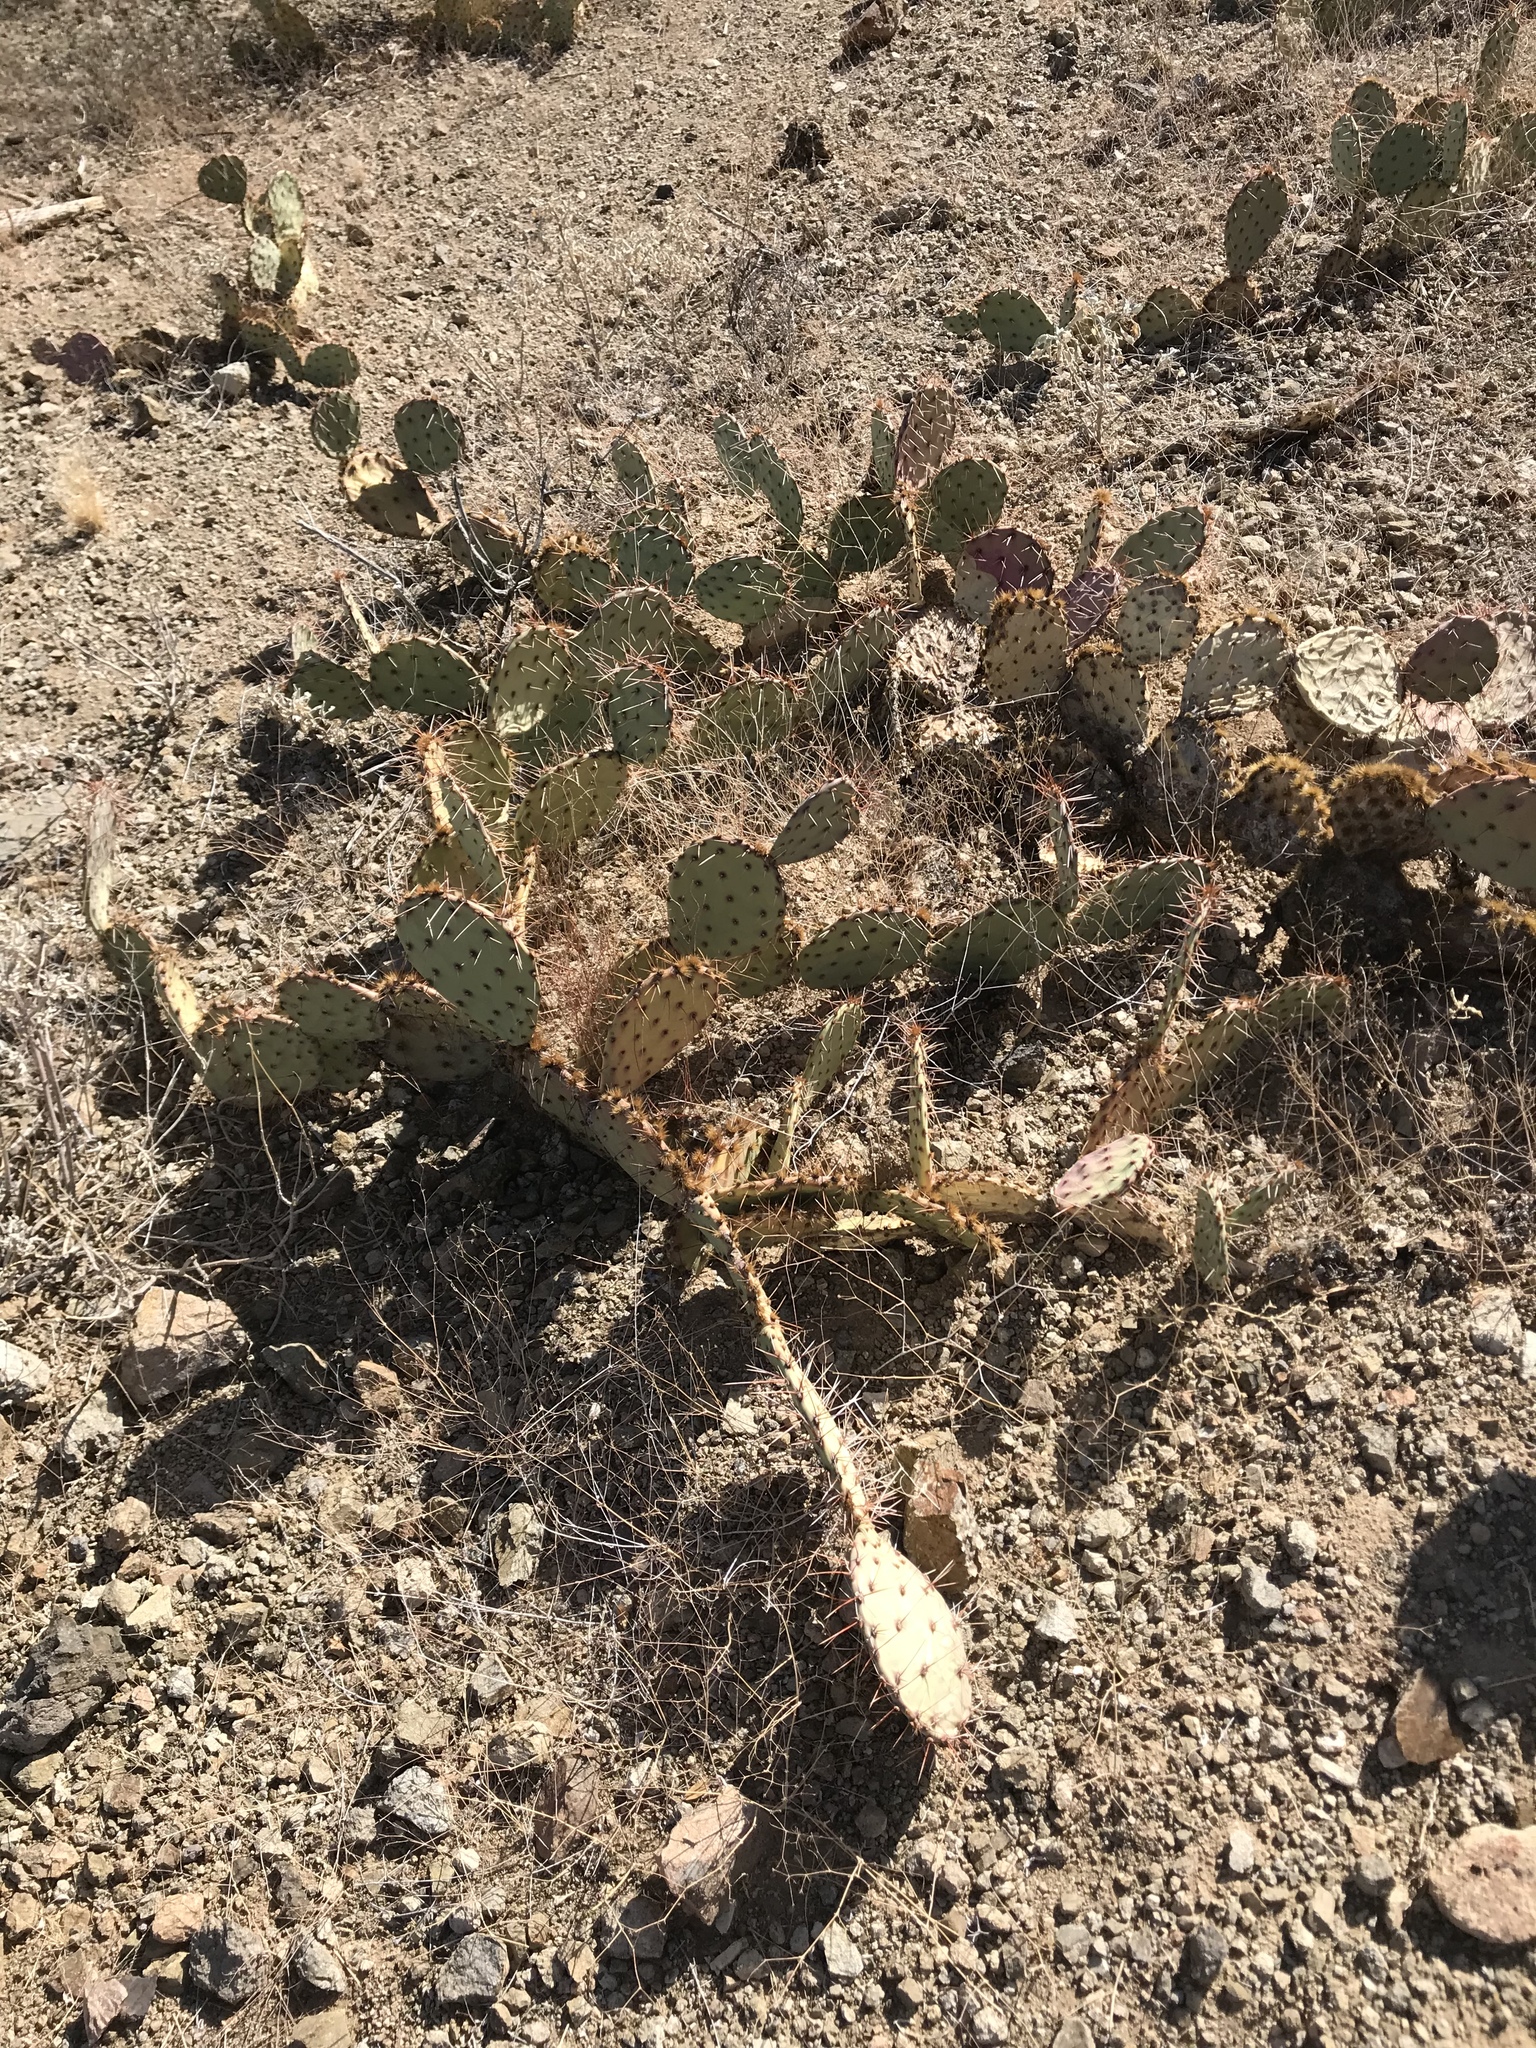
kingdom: Plantae
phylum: Tracheophyta
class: Magnoliopsida
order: Caryophyllales
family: Cactaceae
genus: Opuntia
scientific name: Opuntia phaeacantha
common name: New mexico prickly-pear
